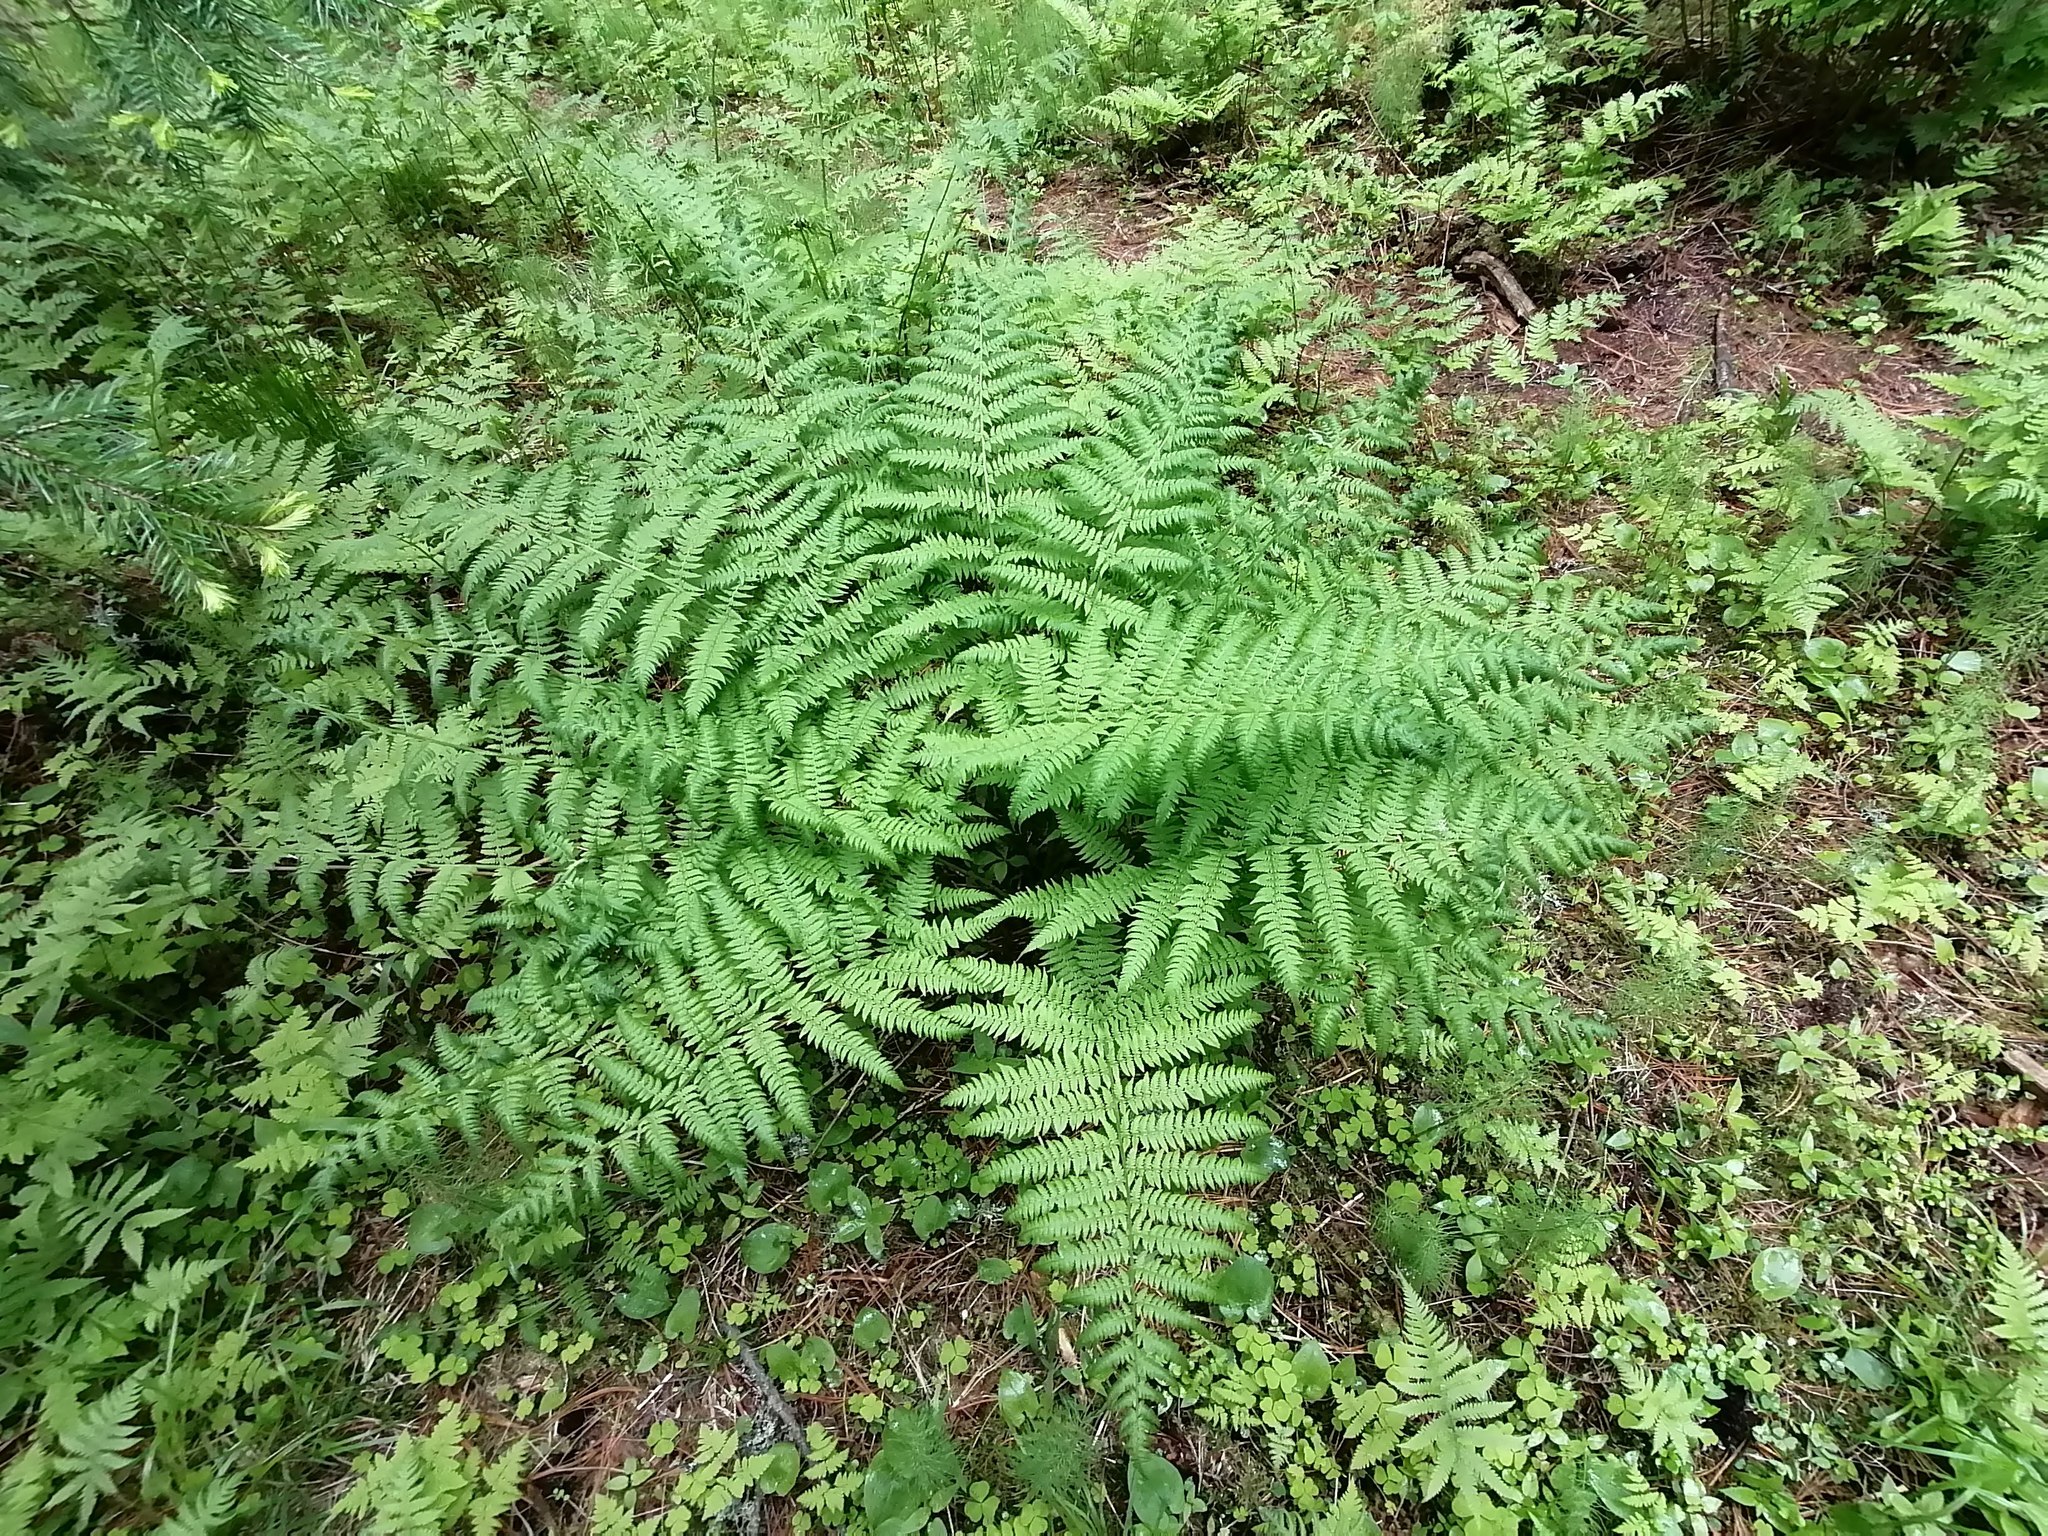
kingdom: Plantae
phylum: Tracheophyta
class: Polypodiopsida
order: Polypodiales
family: Athyriaceae
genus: Athyrium
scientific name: Athyrium filix-femina
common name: Lady fern
